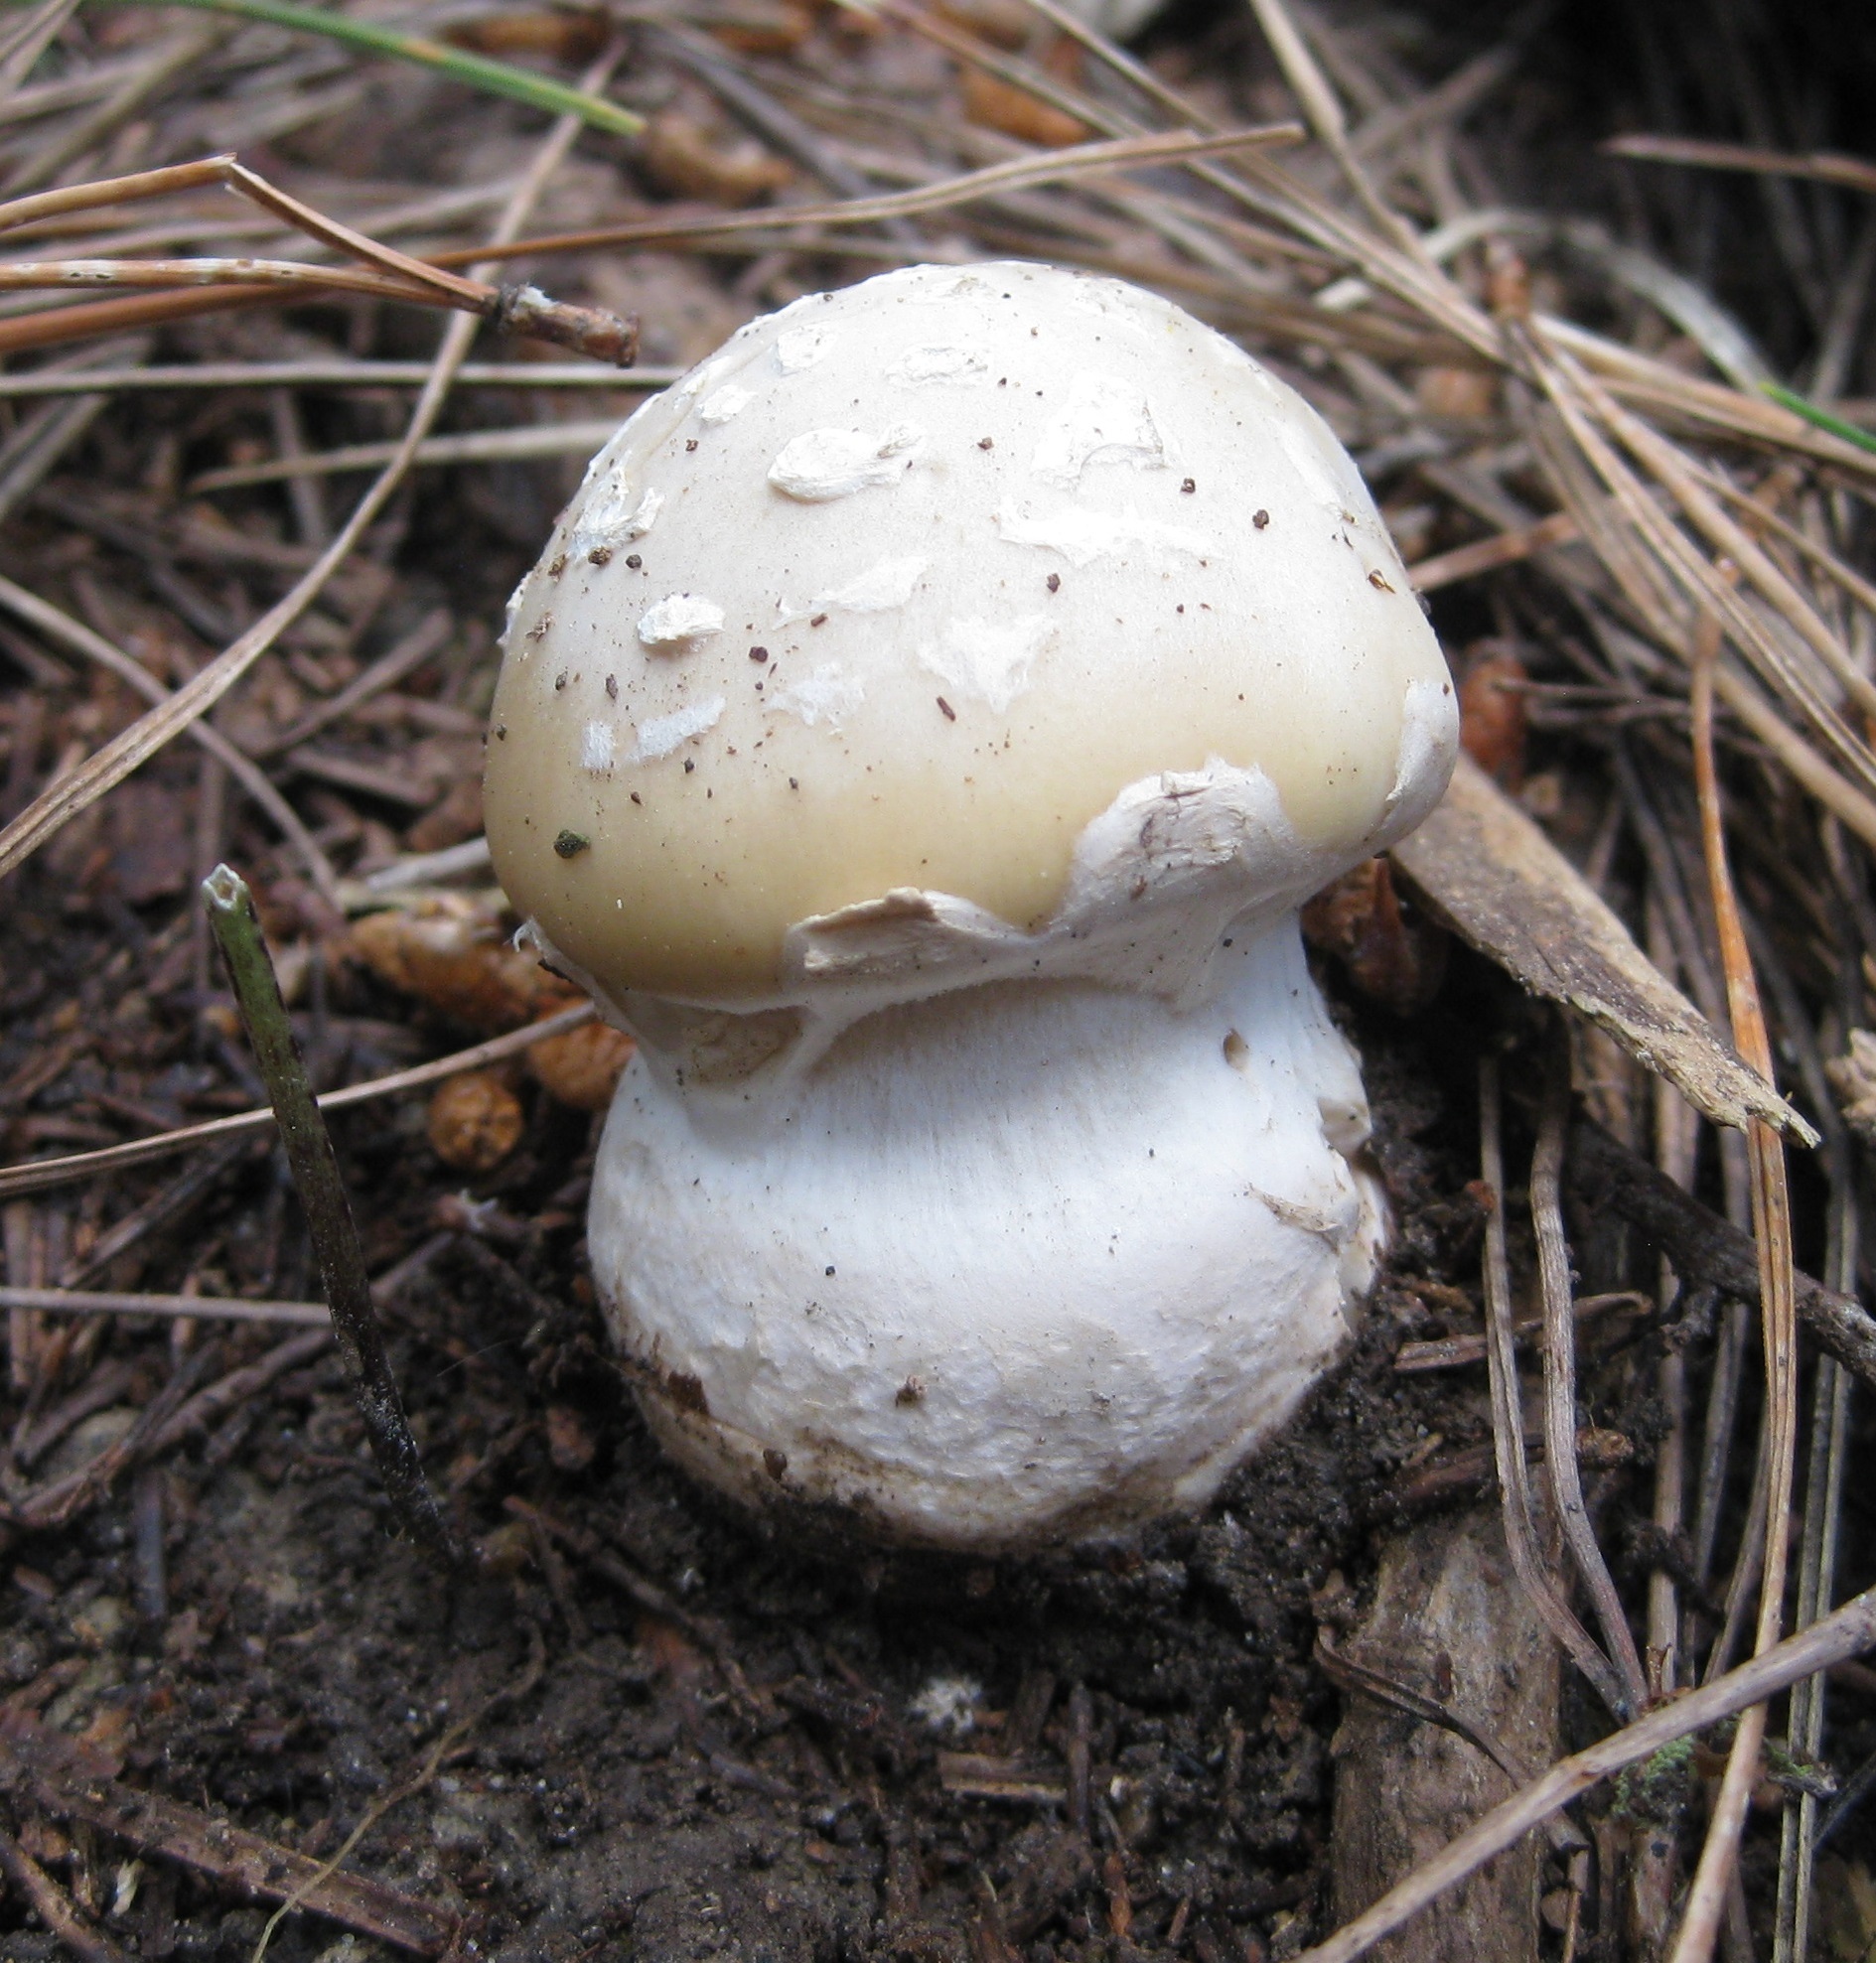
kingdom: Fungi
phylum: Basidiomycota
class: Agaricomycetes
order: Agaricales
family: Amanitaceae
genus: Amanita
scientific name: Amanita gemmata
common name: Jewelled amanita
